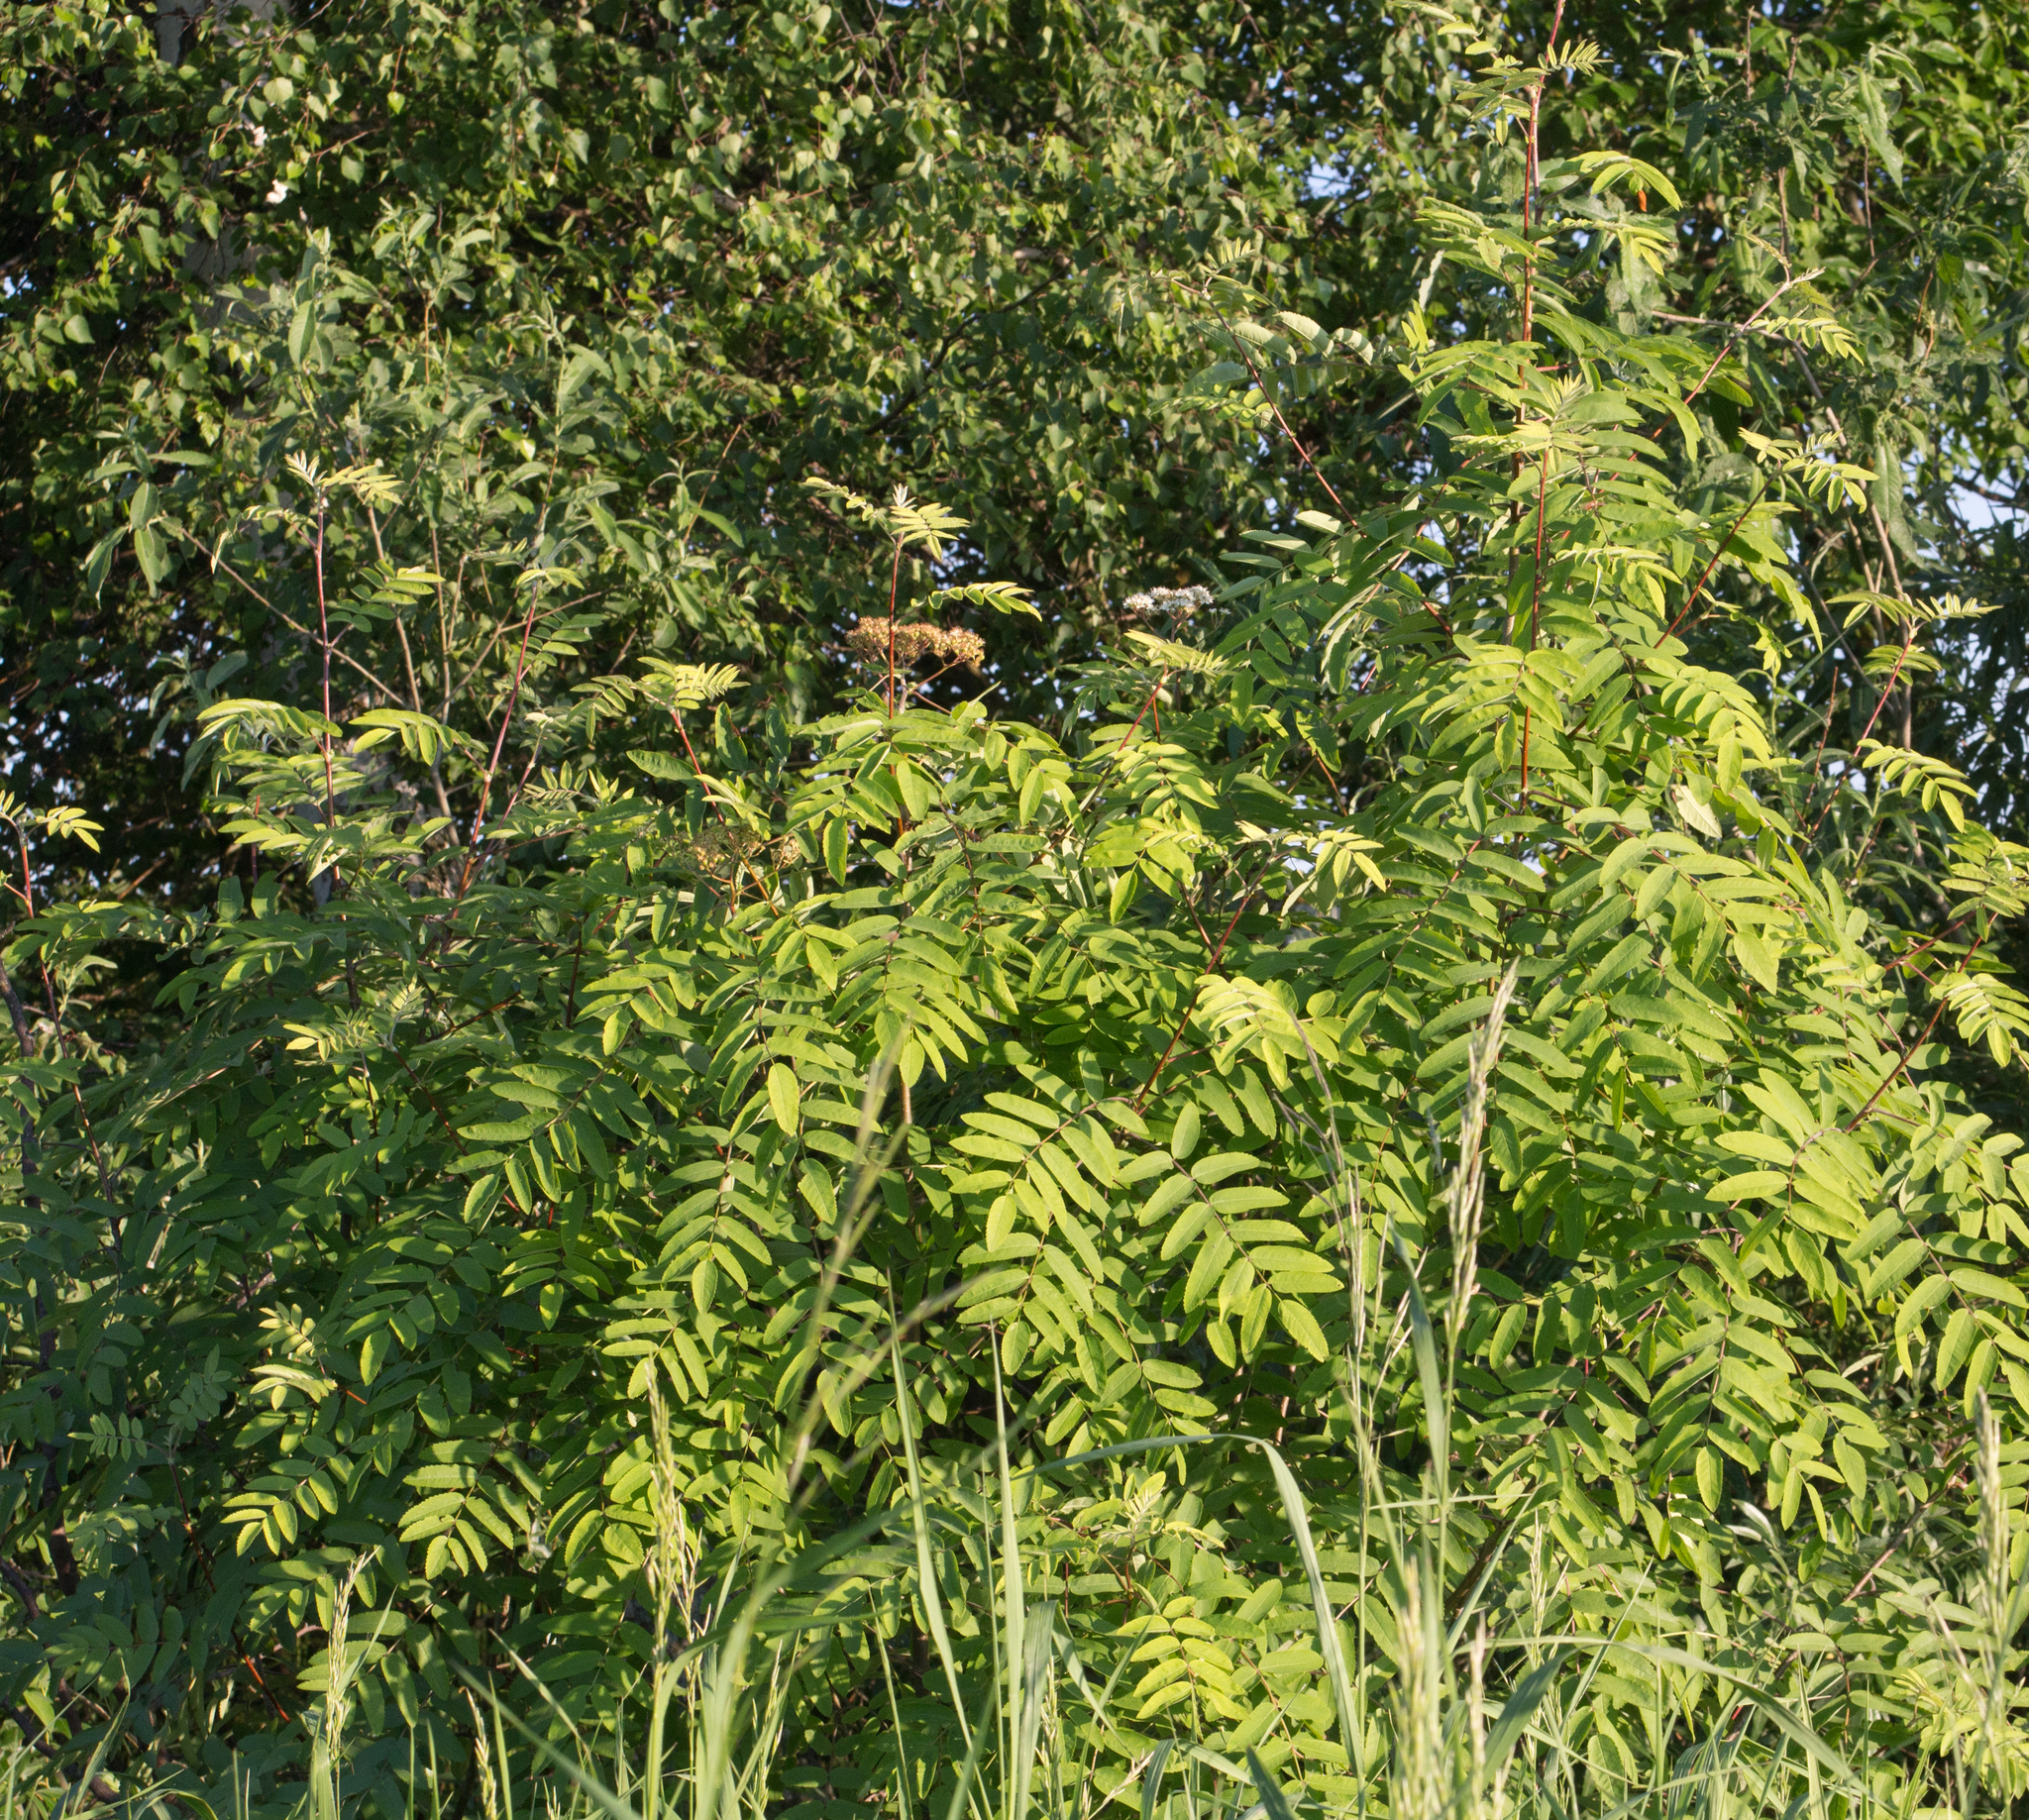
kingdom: Plantae
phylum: Tracheophyta
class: Magnoliopsida
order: Rosales
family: Rosaceae
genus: Sorbus
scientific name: Sorbus aucuparia
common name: Rowan
